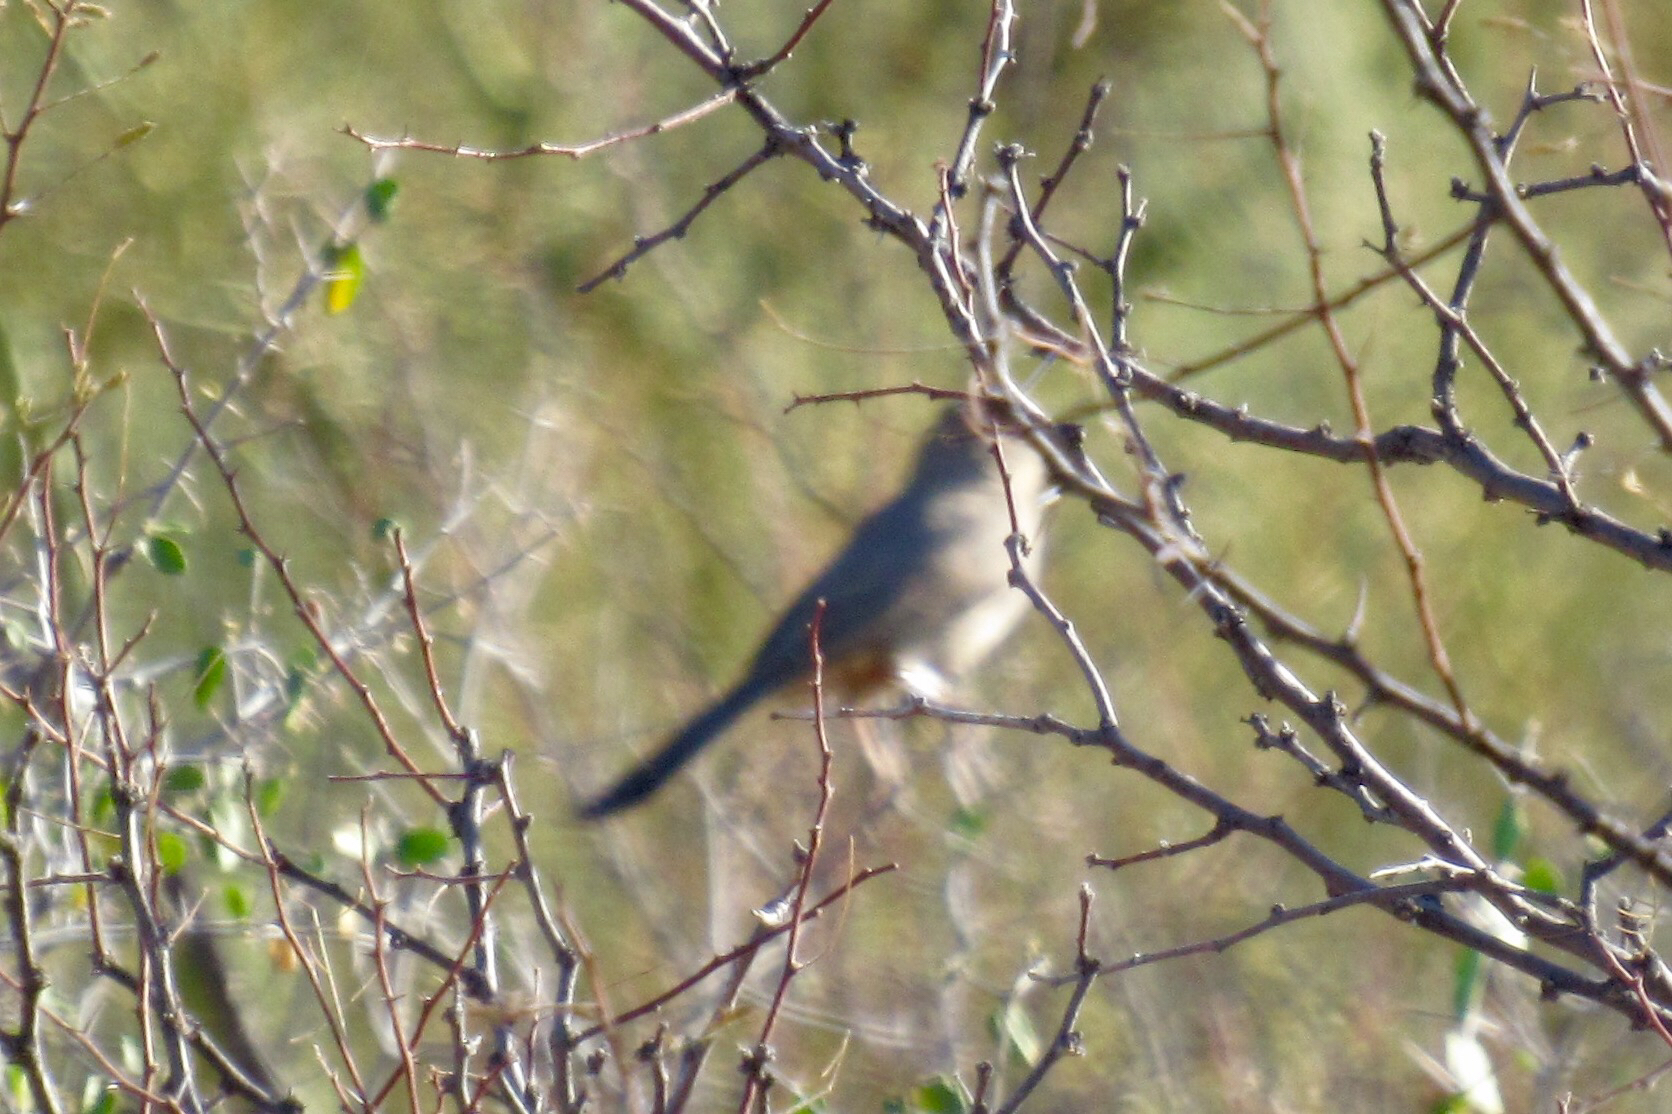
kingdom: Animalia
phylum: Chordata
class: Aves
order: Passeriformes
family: Tyrannidae
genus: Sayornis
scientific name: Sayornis saya
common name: Say's phoebe
